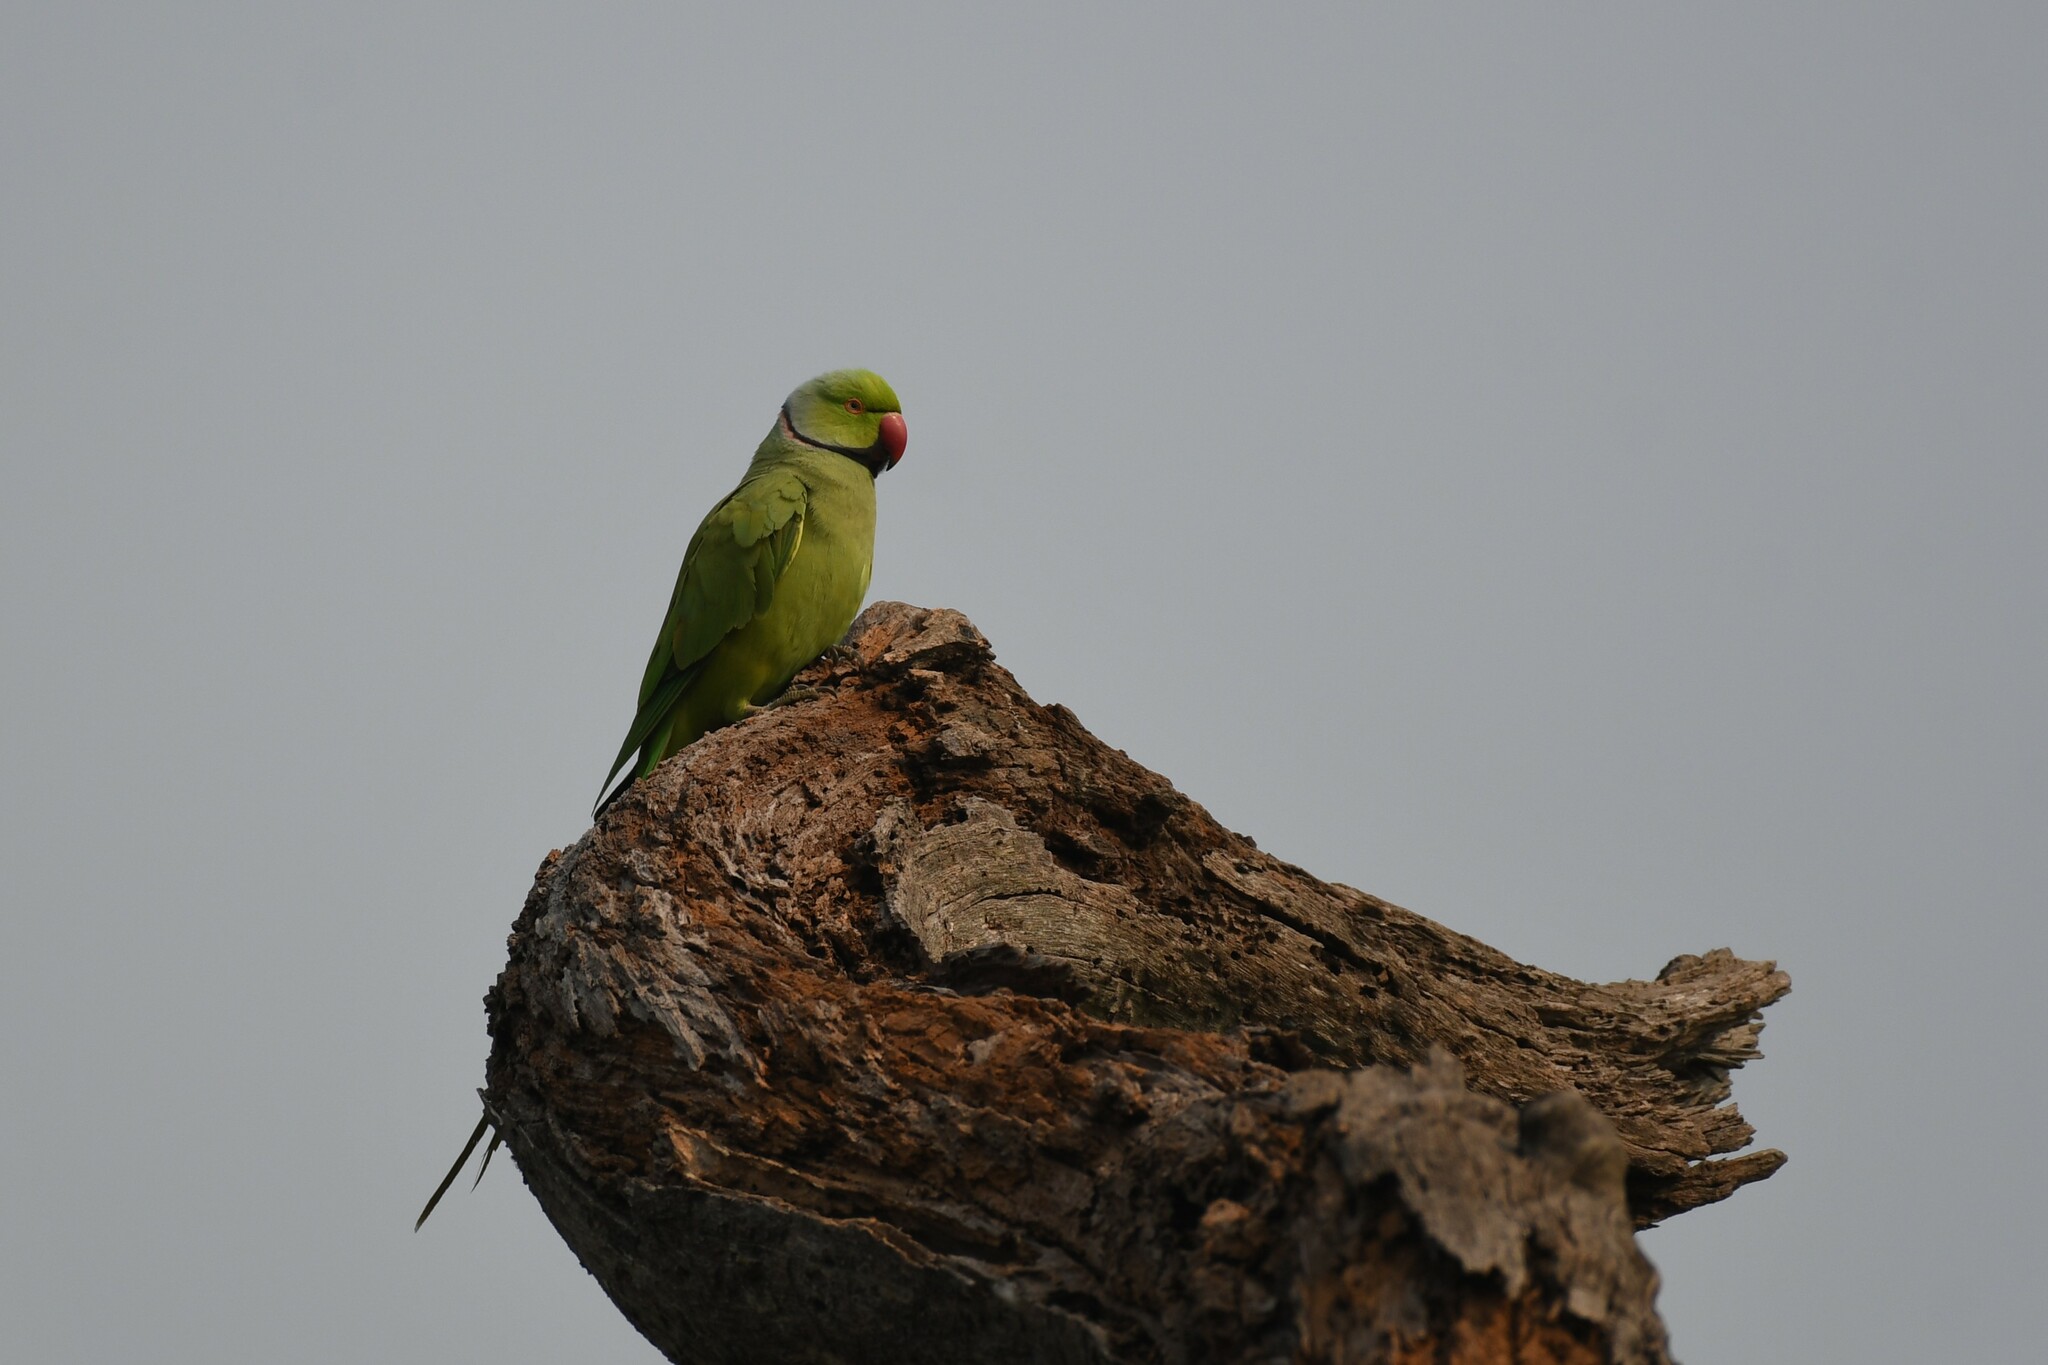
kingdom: Animalia
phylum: Chordata
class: Aves
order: Psittaciformes
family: Psittacidae
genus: Psittacula
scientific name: Psittacula krameri
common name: Rose-ringed parakeet
